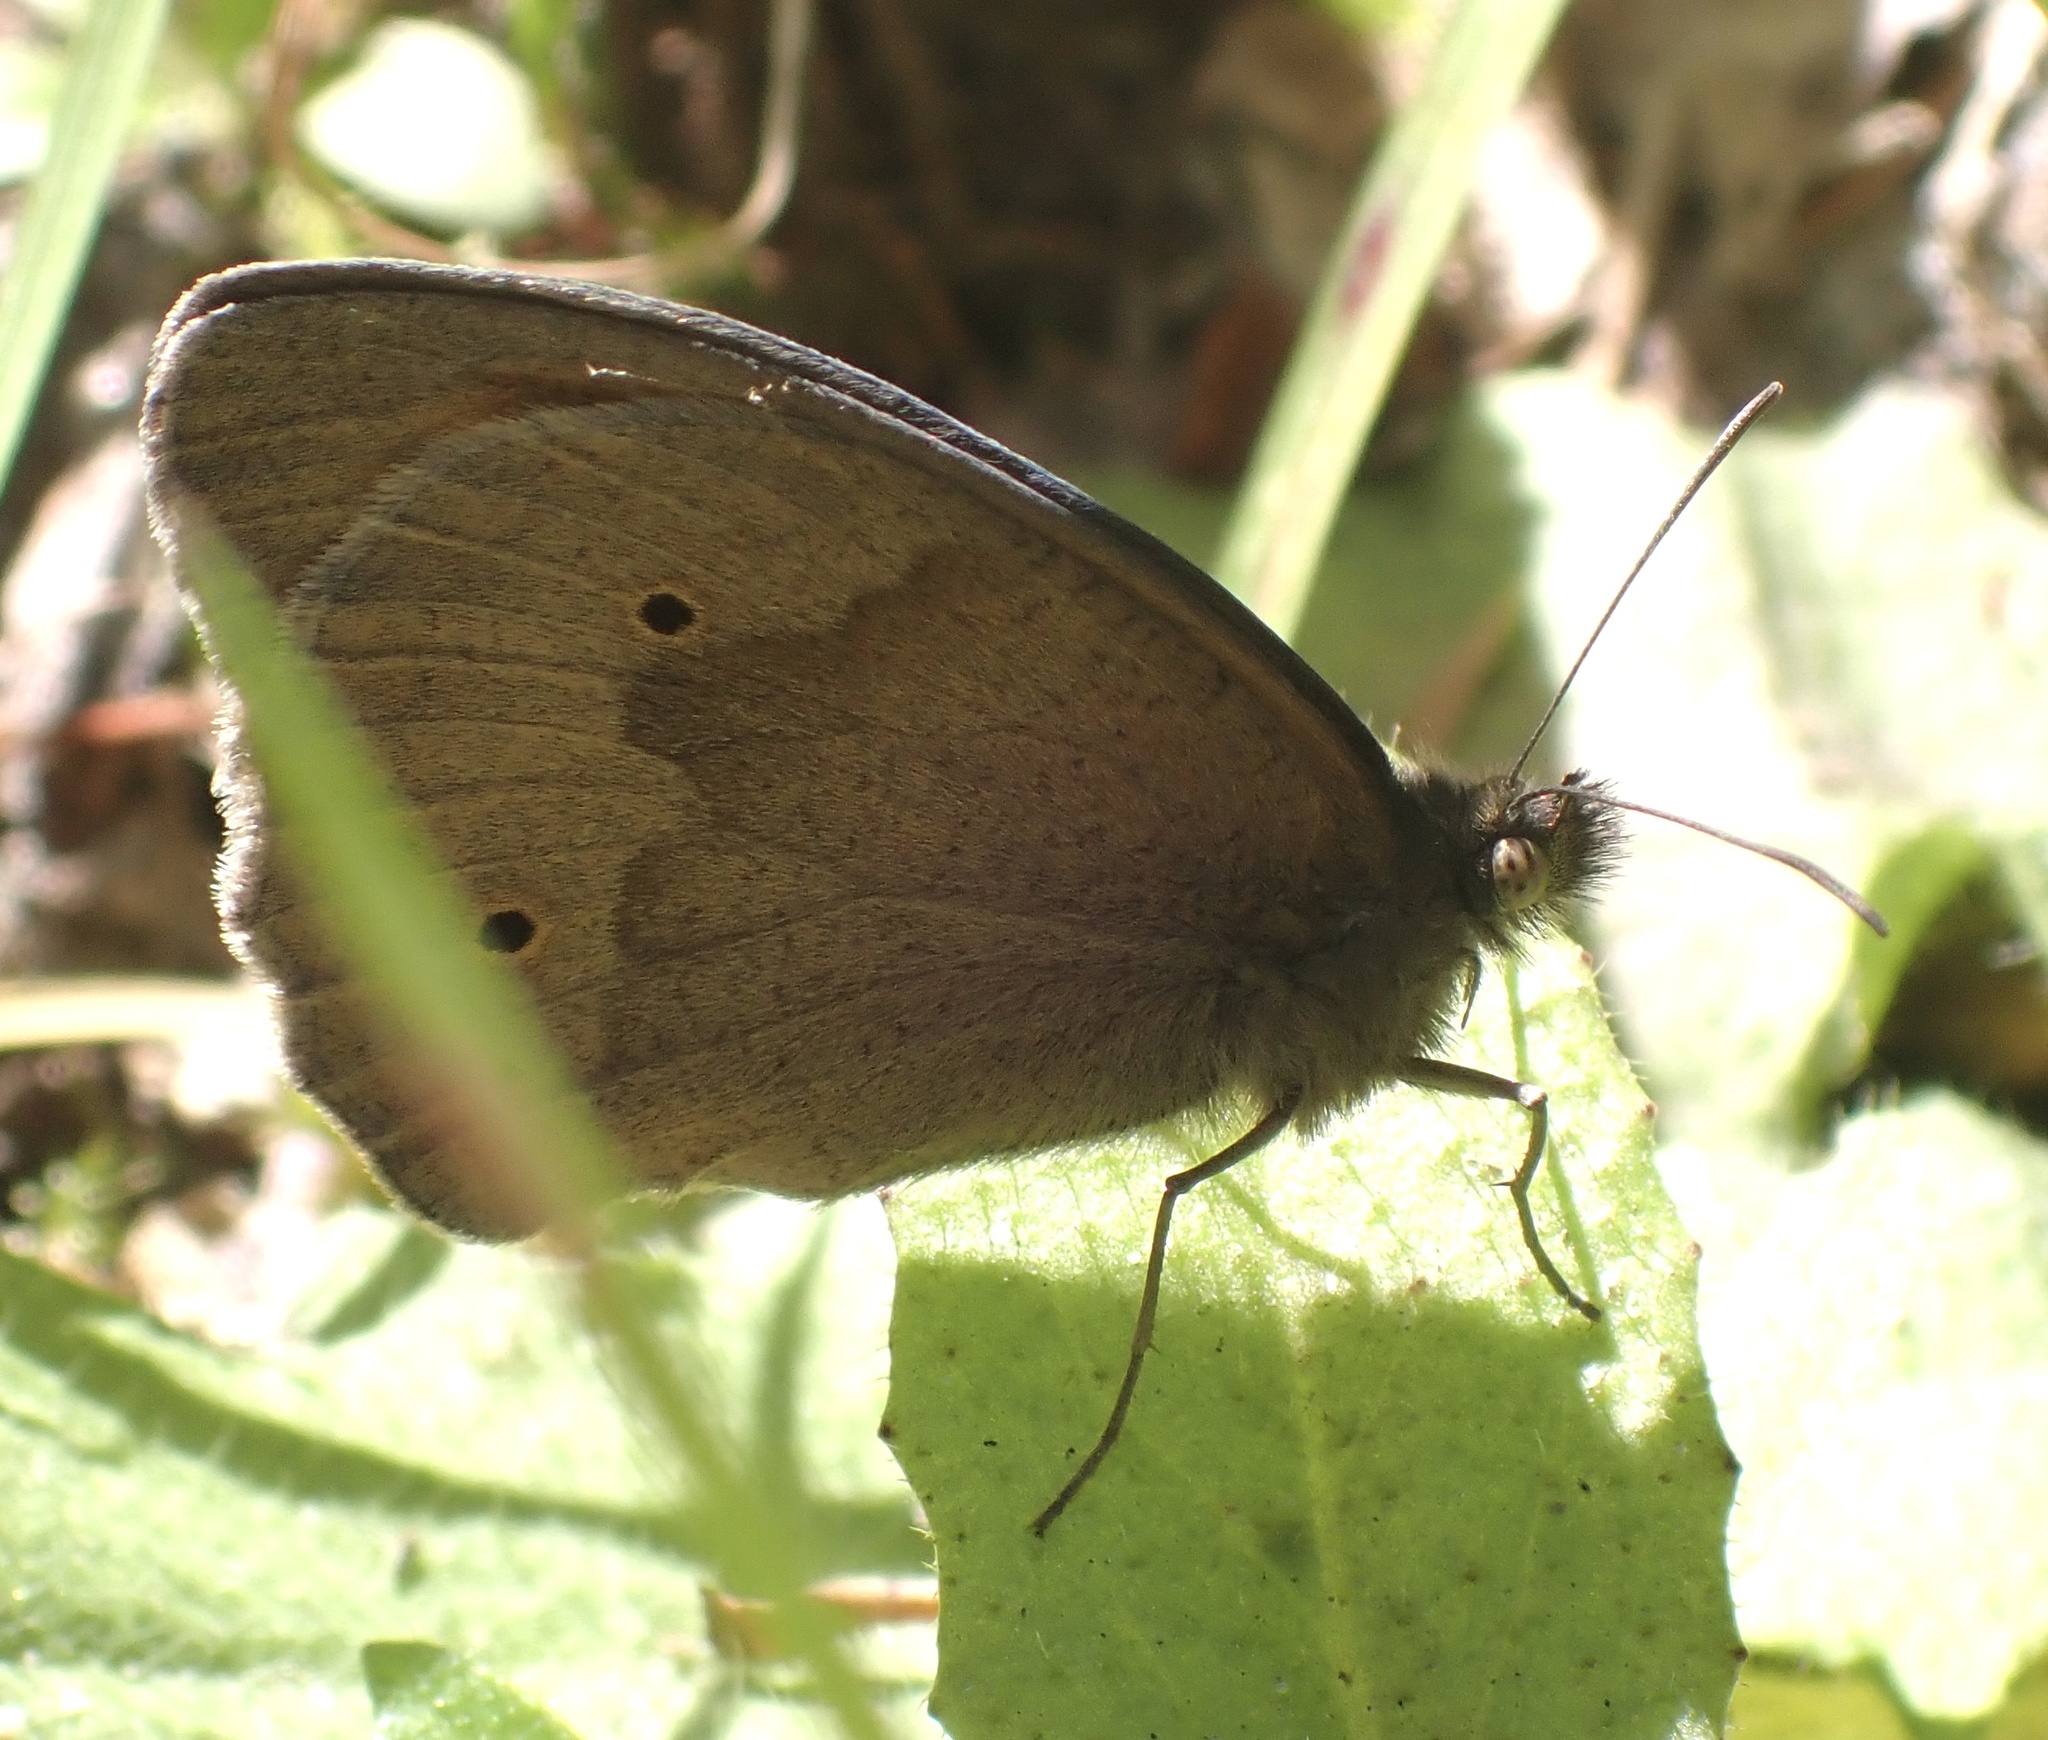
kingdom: Animalia
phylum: Arthropoda
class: Insecta
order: Lepidoptera
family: Nymphalidae
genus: Maniola
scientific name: Maniola jurtina
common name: Meadow brown
